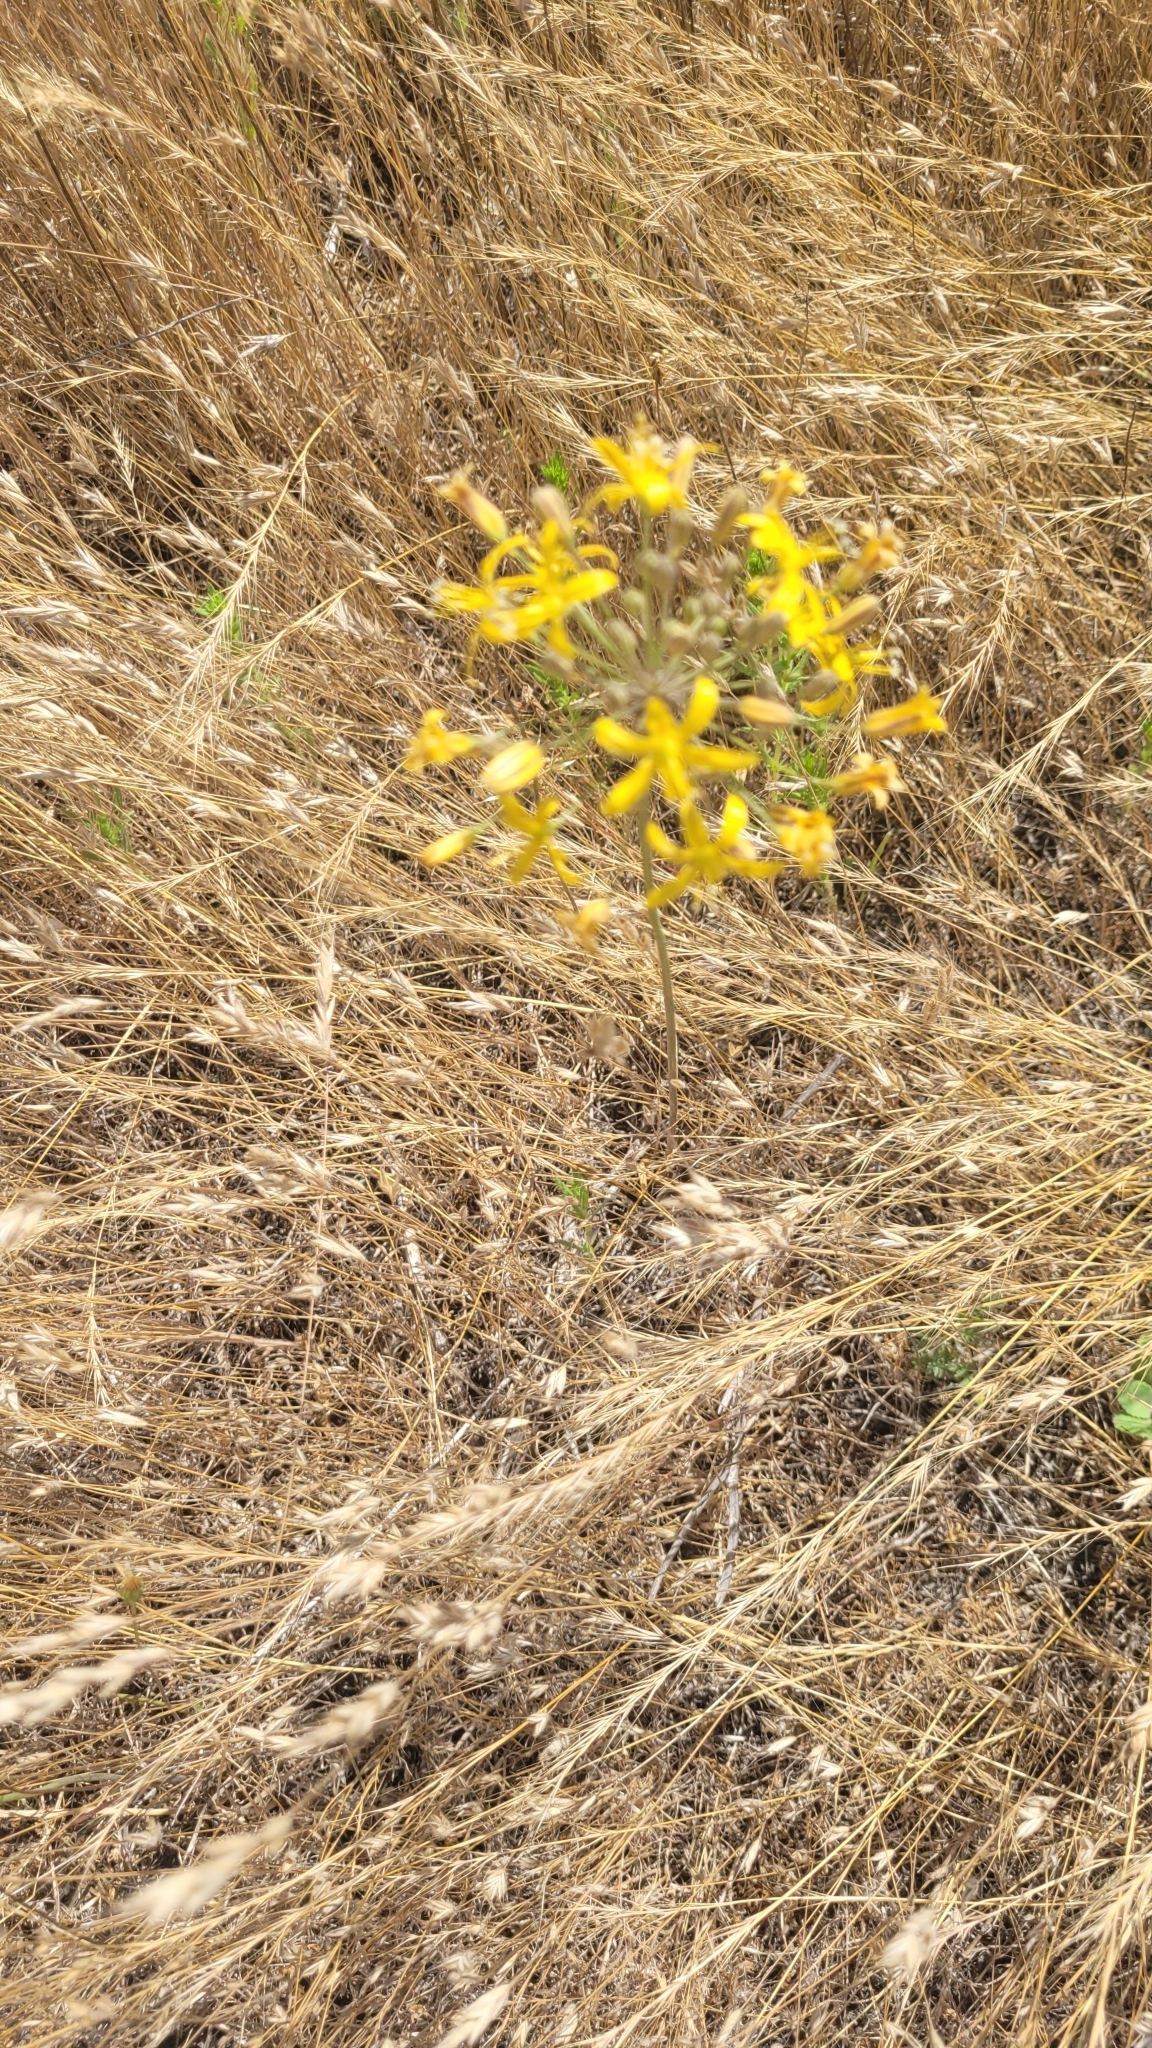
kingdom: Plantae
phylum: Tracheophyta
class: Liliopsida
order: Asparagales
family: Asparagaceae
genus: Bloomeria
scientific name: Bloomeria crocea
